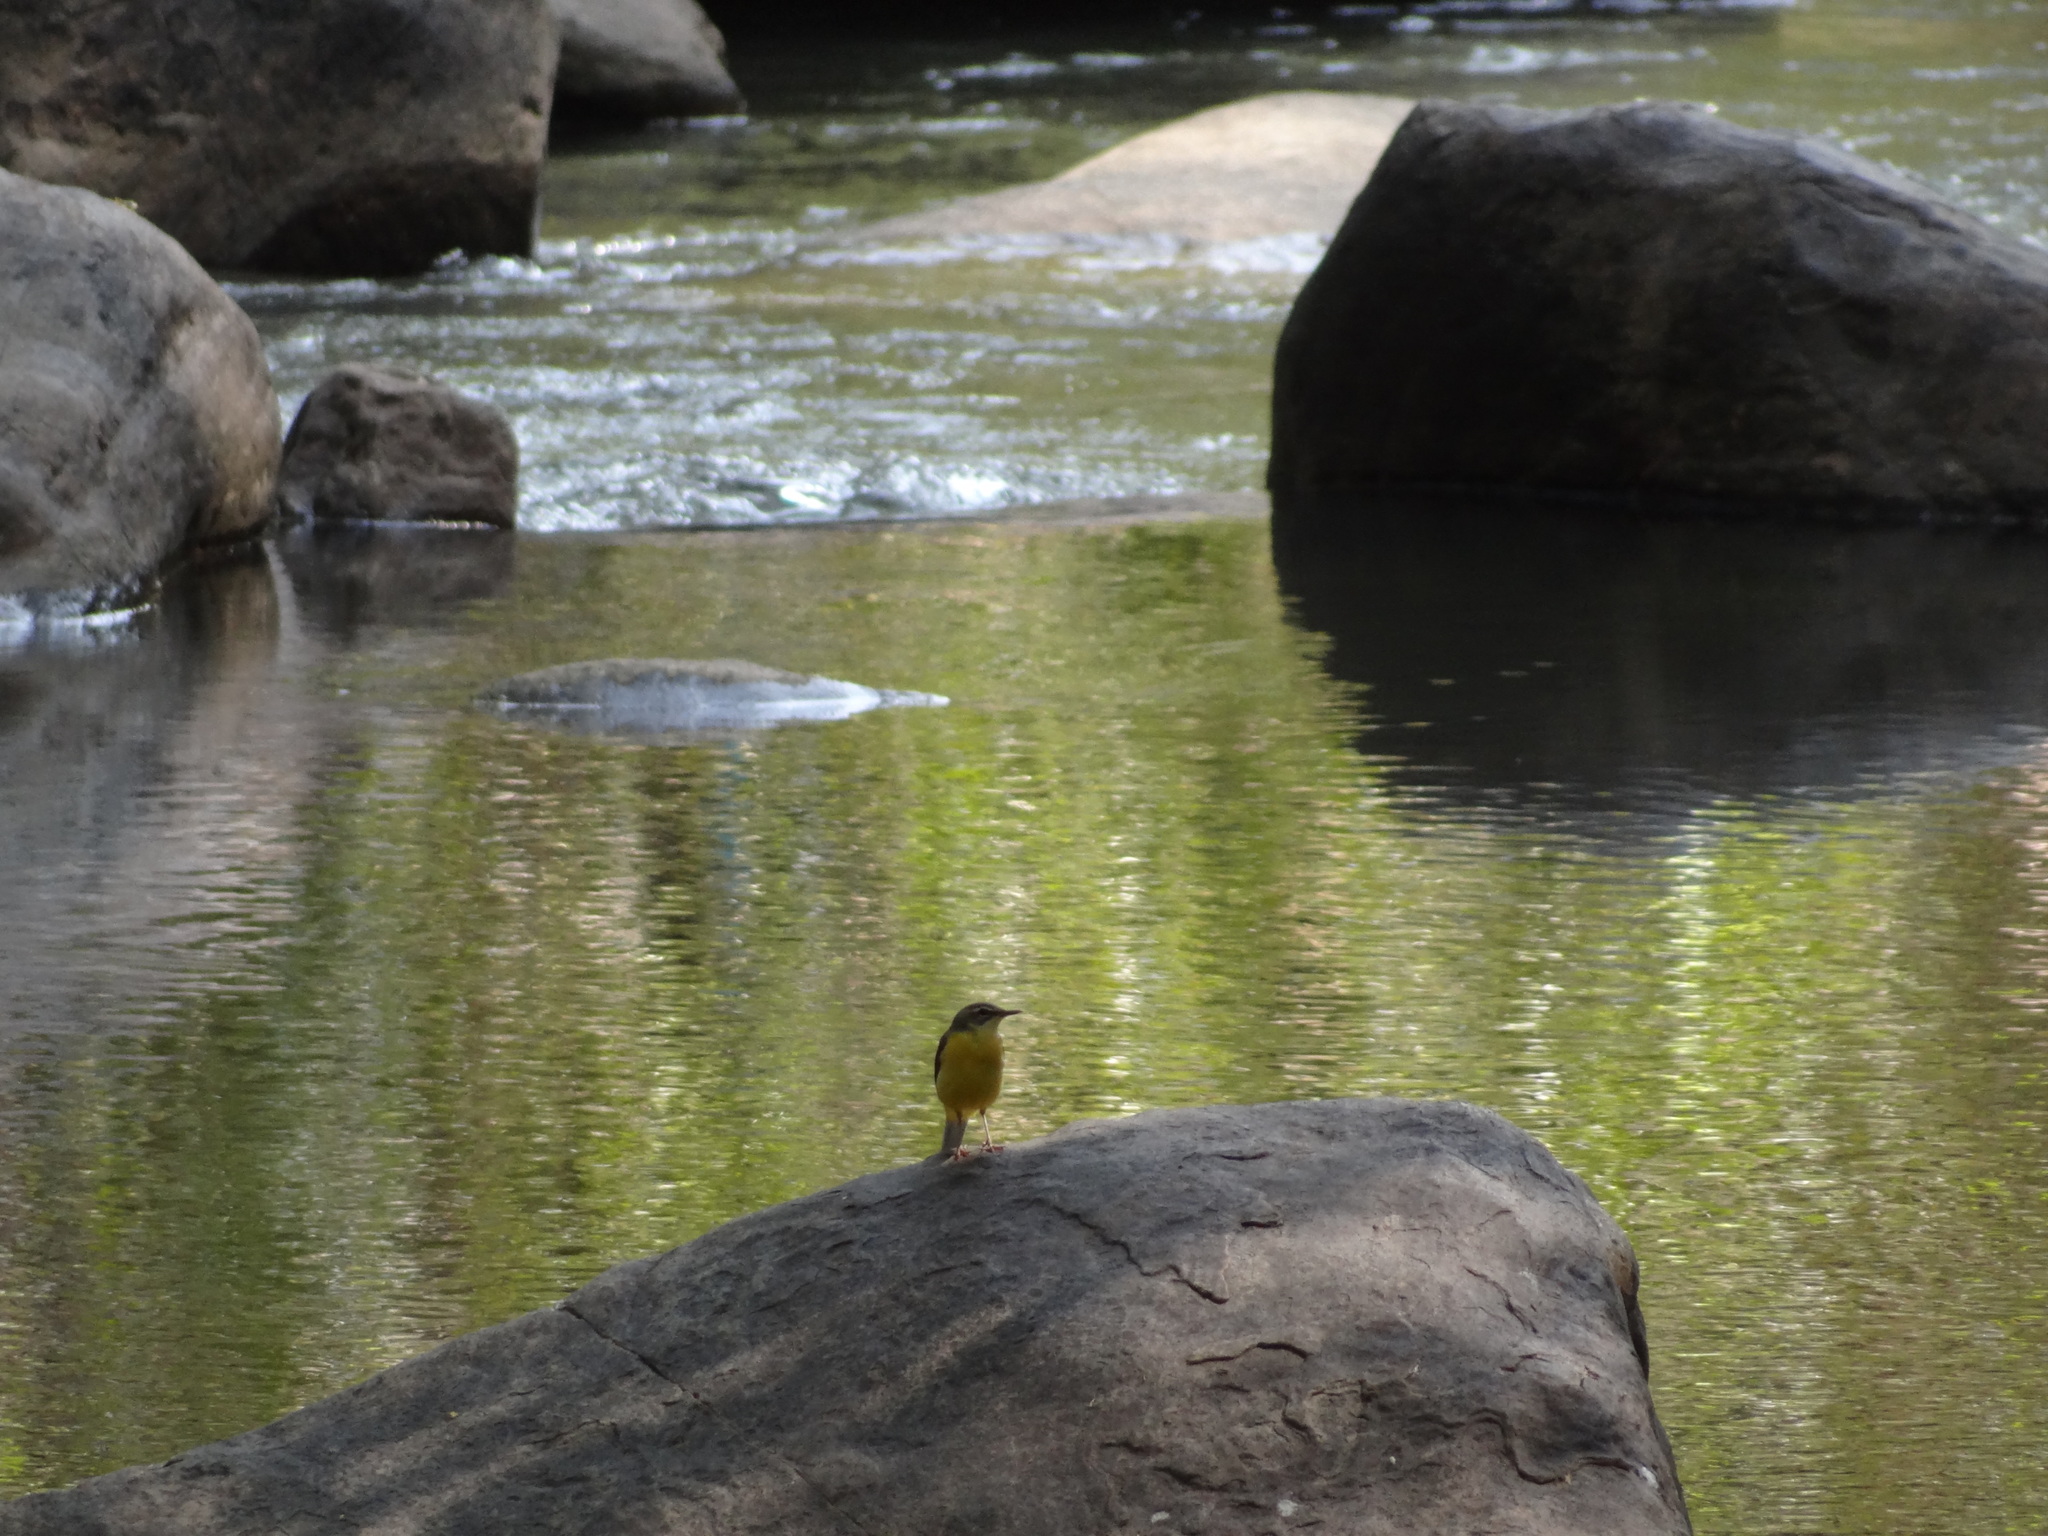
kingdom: Animalia
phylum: Chordata
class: Aves
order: Passeriformes
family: Motacillidae
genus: Motacilla
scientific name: Motacilla cinerea
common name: Grey wagtail
